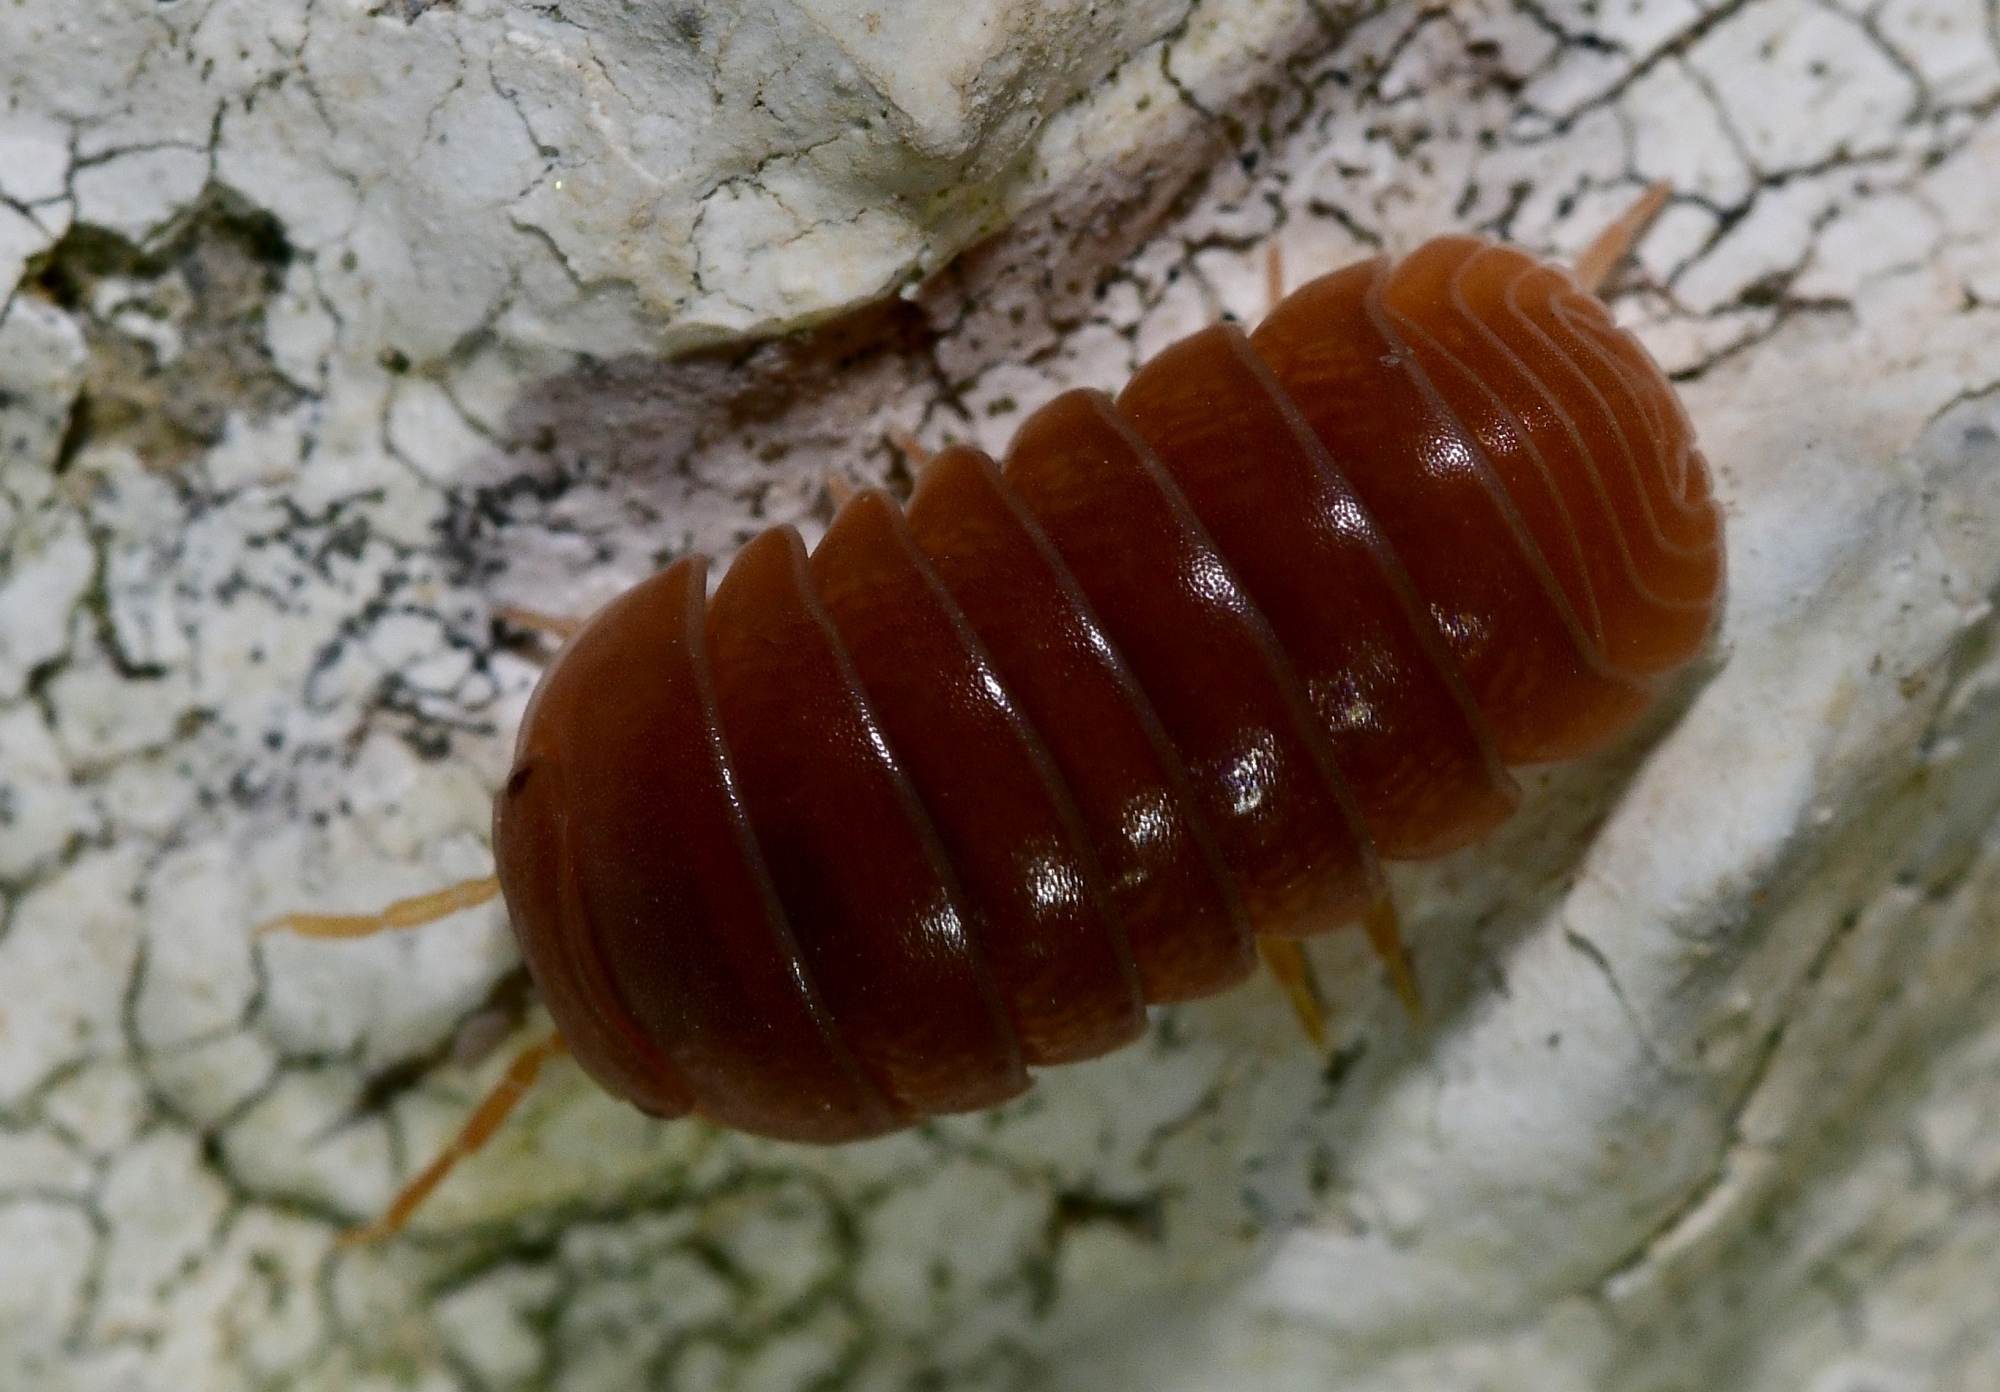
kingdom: Animalia
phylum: Arthropoda
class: Malacostraca
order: Isopoda
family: Armadillidae
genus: Armadillo
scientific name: Armadillo officinalis
